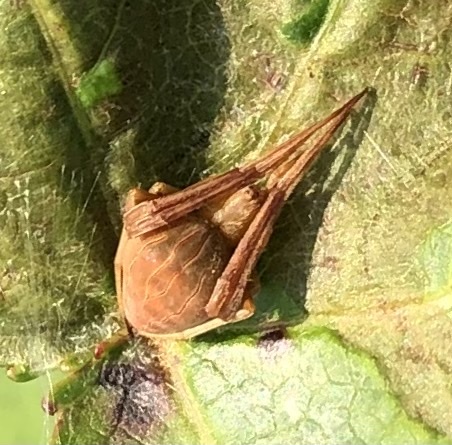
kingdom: Animalia
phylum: Arthropoda
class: Arachnida
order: Araneae
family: Araneidae
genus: Acacesia
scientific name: Acacesia hamata
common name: Orb weavers
